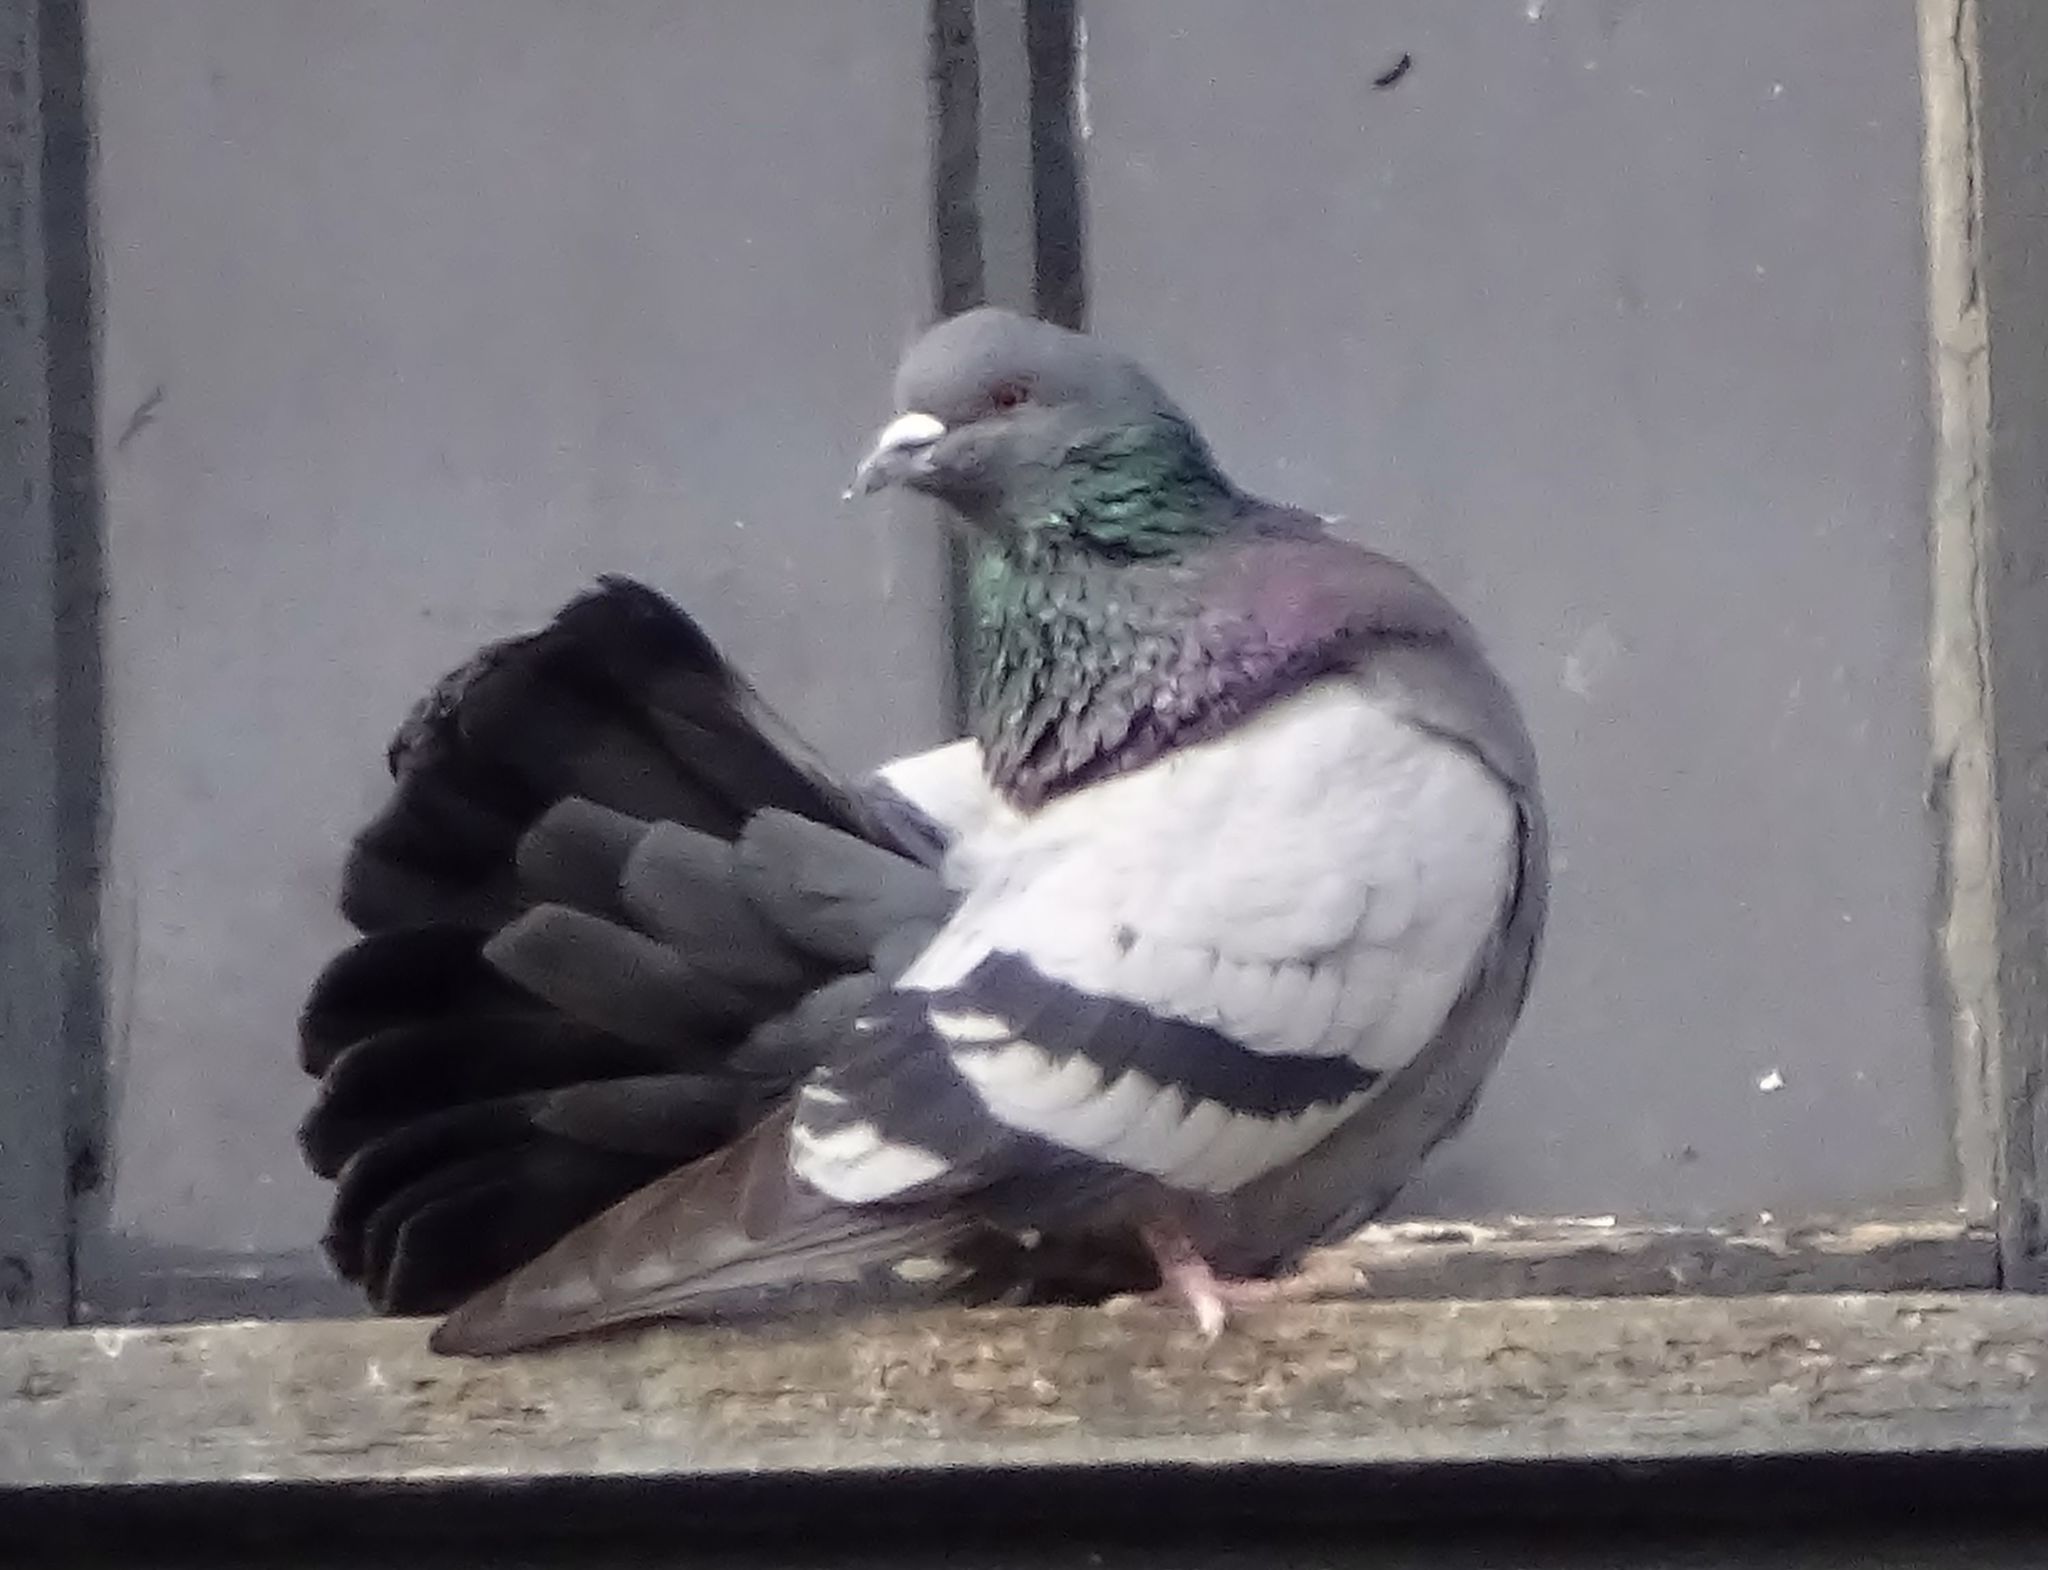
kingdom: Animalia
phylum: Chordata
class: Aves
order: Columbiformes
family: Columbidae
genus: Columba
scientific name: Columba livia
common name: Rock pigeon
